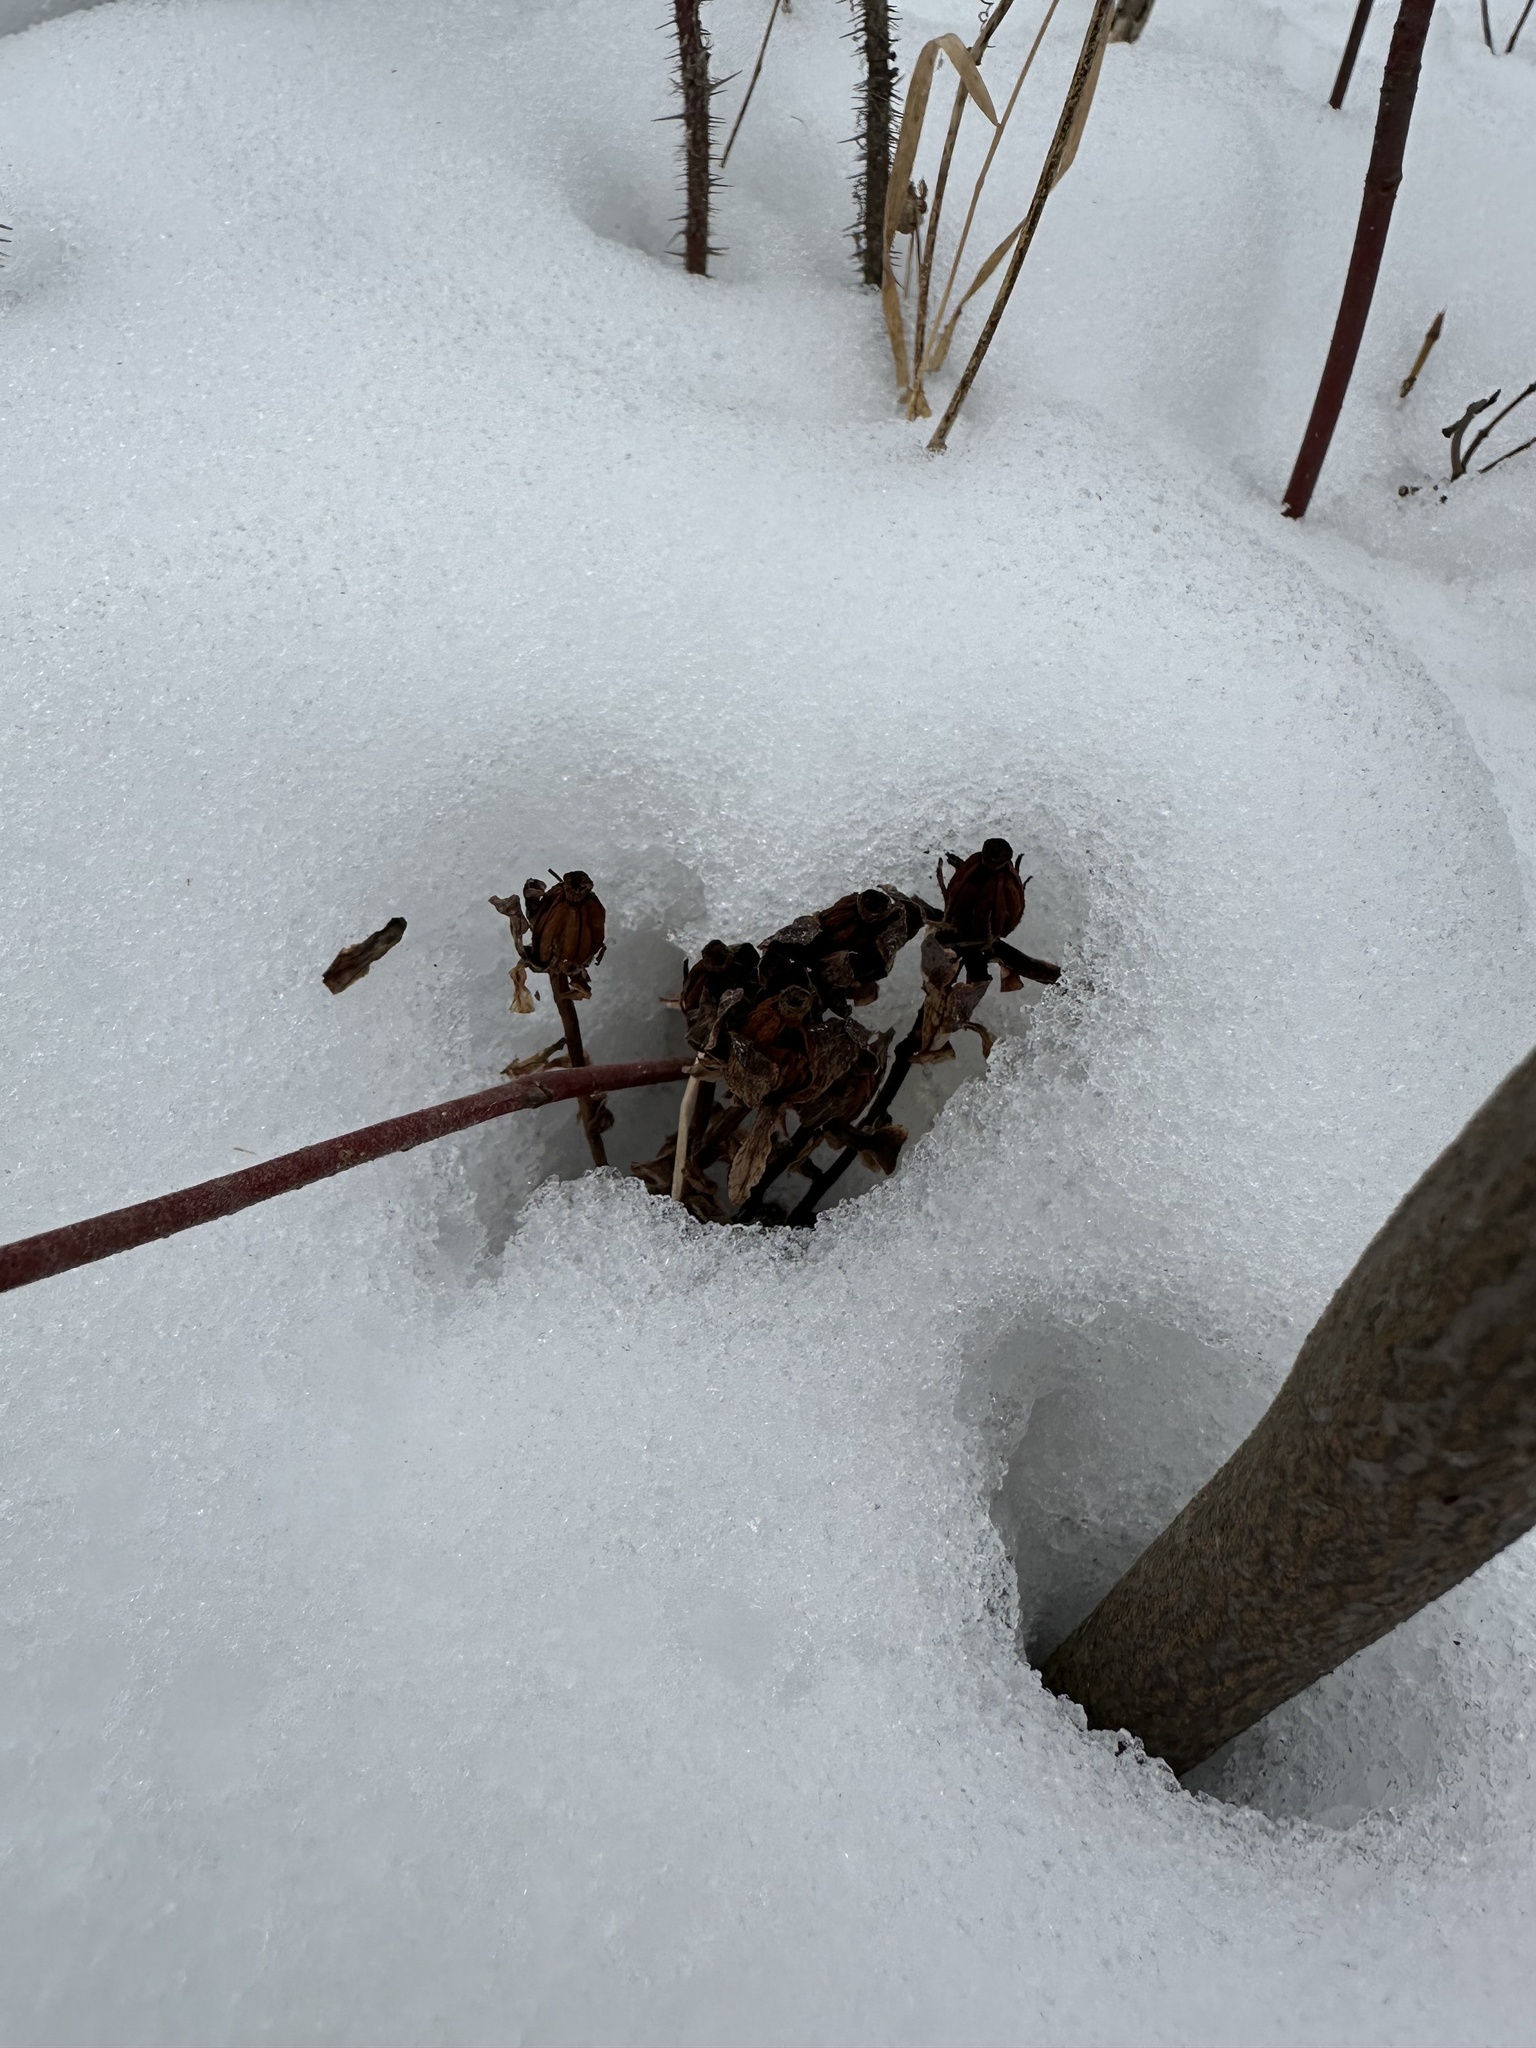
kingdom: Plantae
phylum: Tracheophyta
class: Magnoliopsida
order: Ericales
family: Ericaceae
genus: Monotropa
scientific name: Monotropa uniflora
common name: Convulsion root
